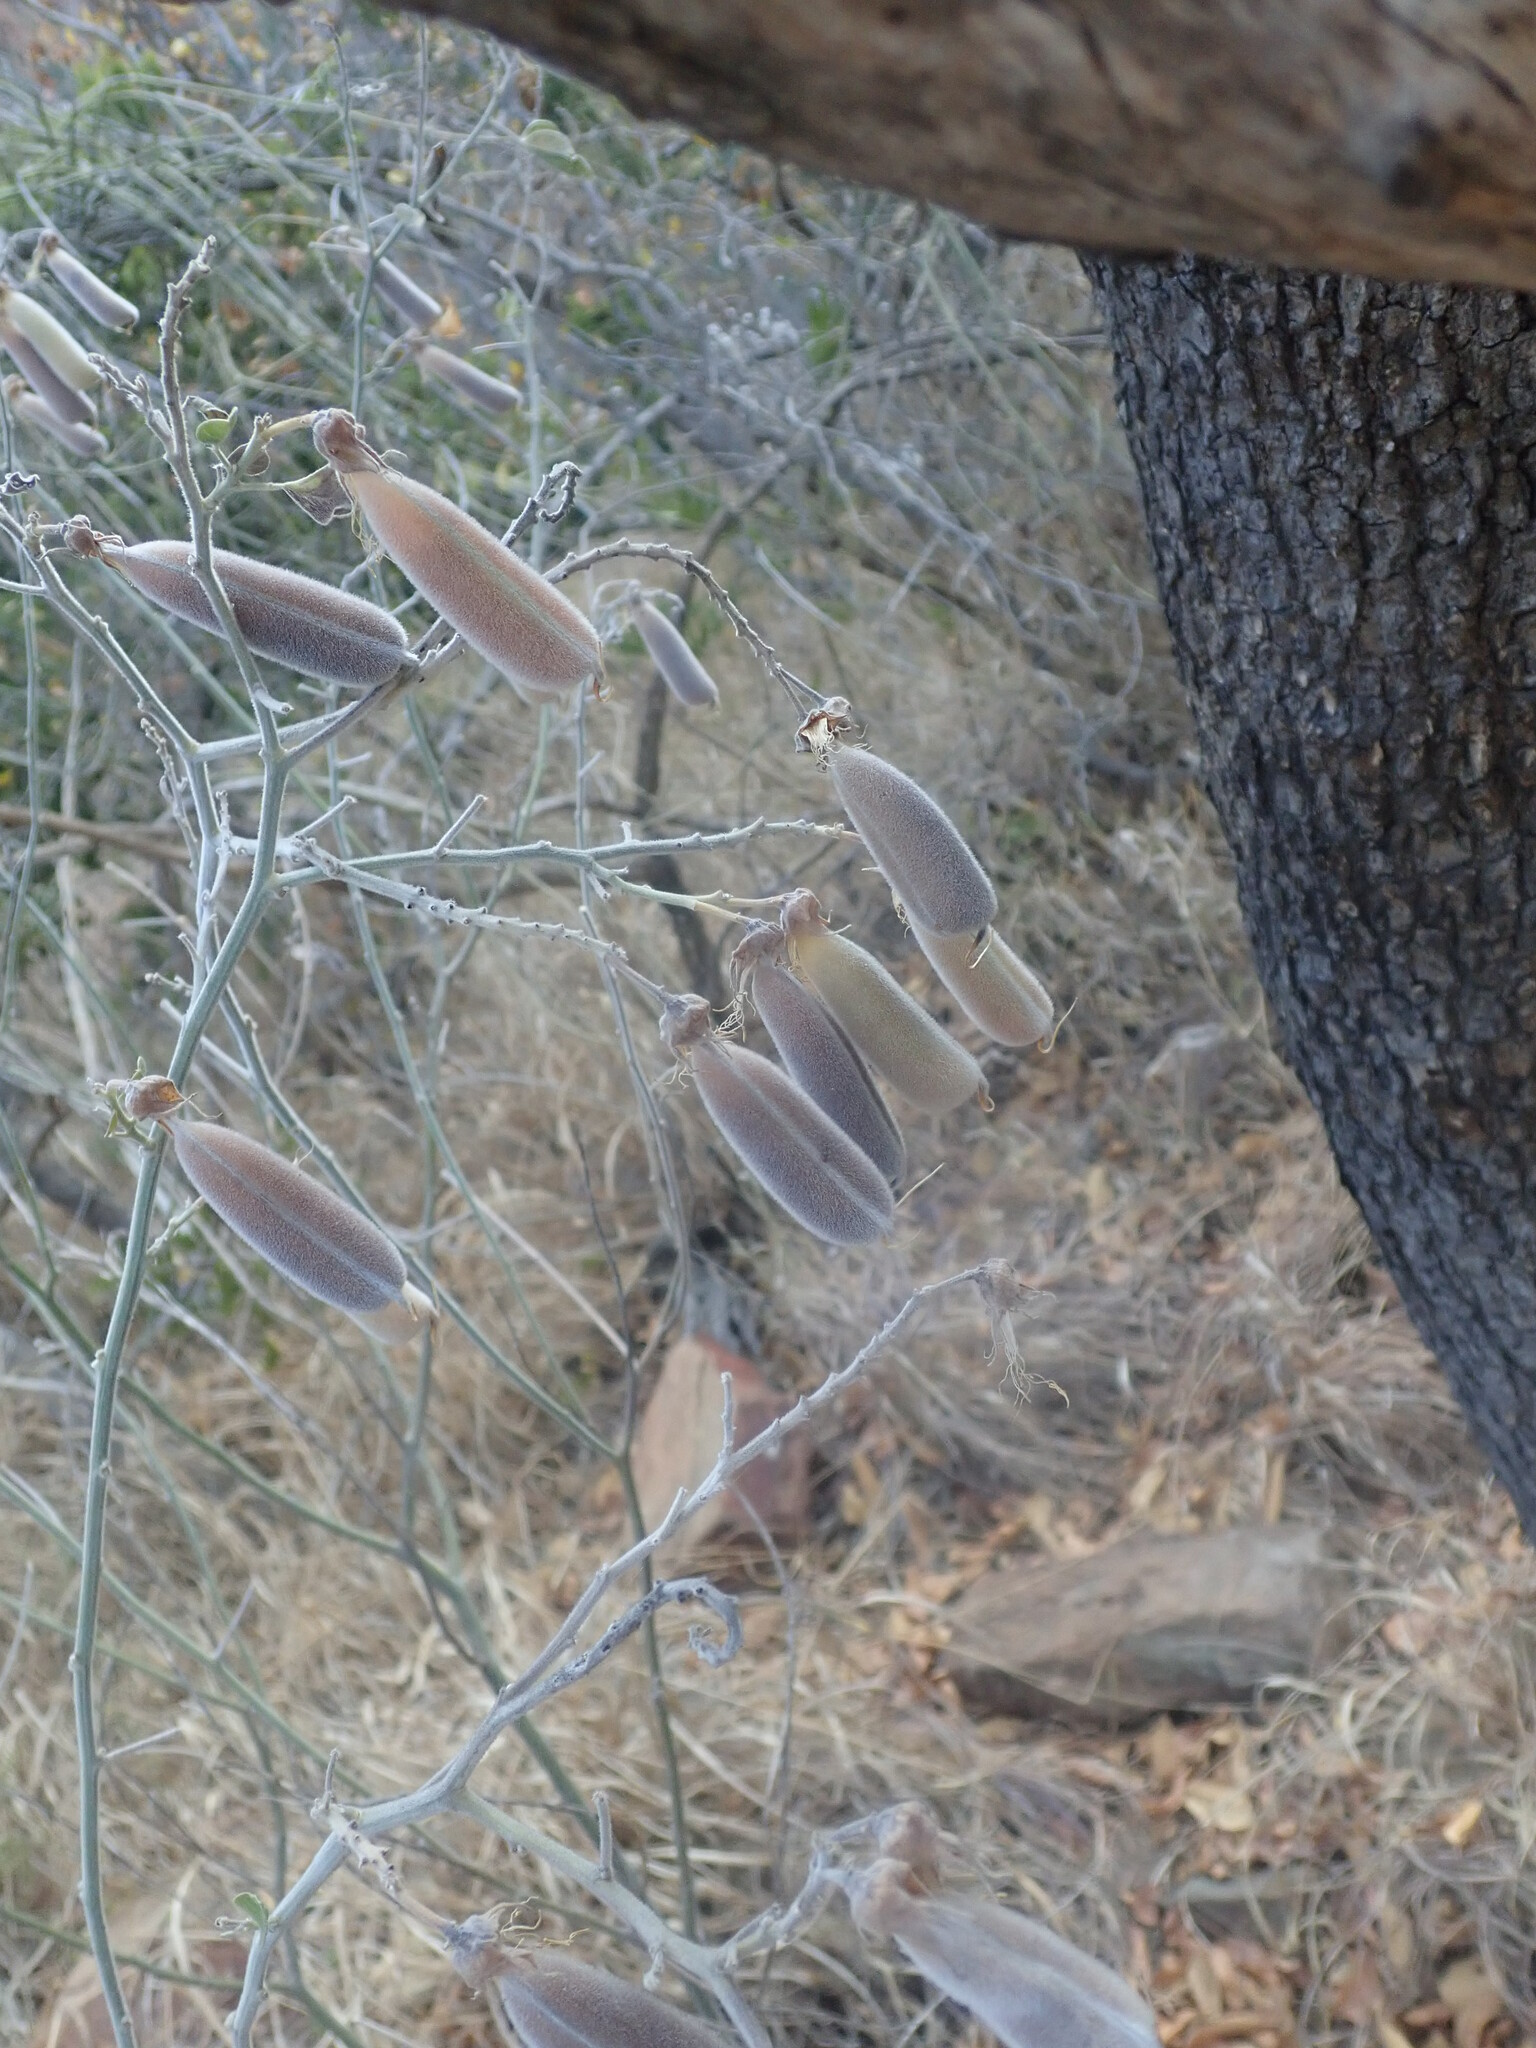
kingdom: Plantae
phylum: Tracheophyta
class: Magnoliopsida
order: Fabales
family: Fabaceae
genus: Crotalaria
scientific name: Crotalaria doidgeae
